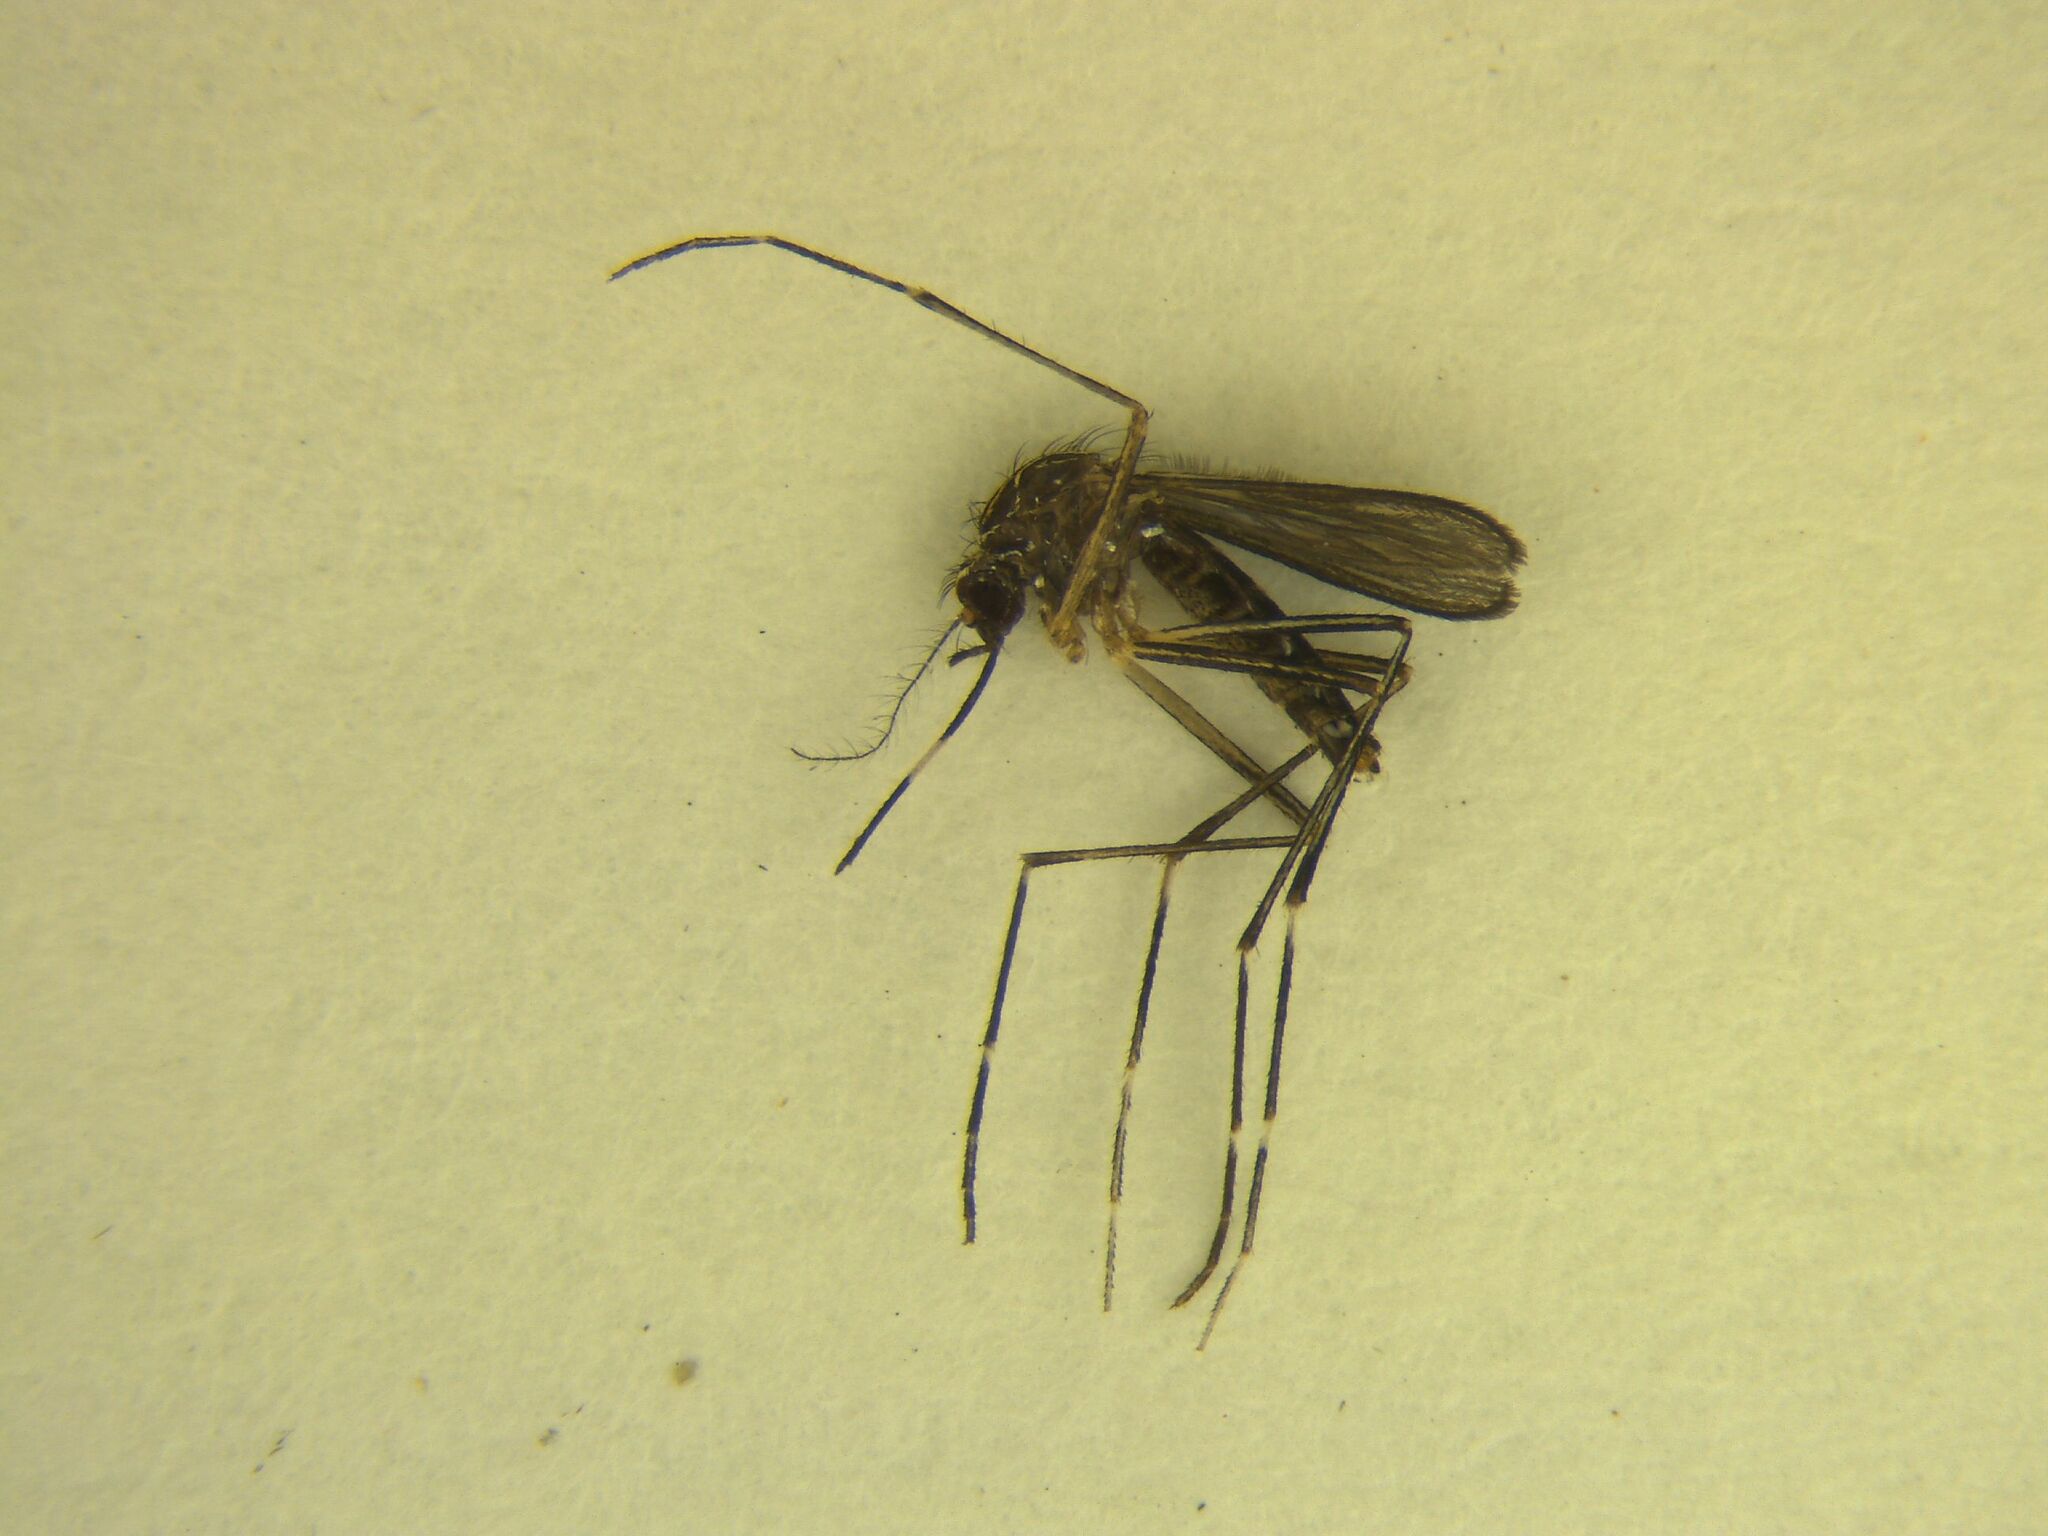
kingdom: Animalia
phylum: Arthropoda
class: Insecta
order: Diptera
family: Culicidae
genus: Aedes
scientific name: Aedes notoscriptus
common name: Australian backyard mosquito
